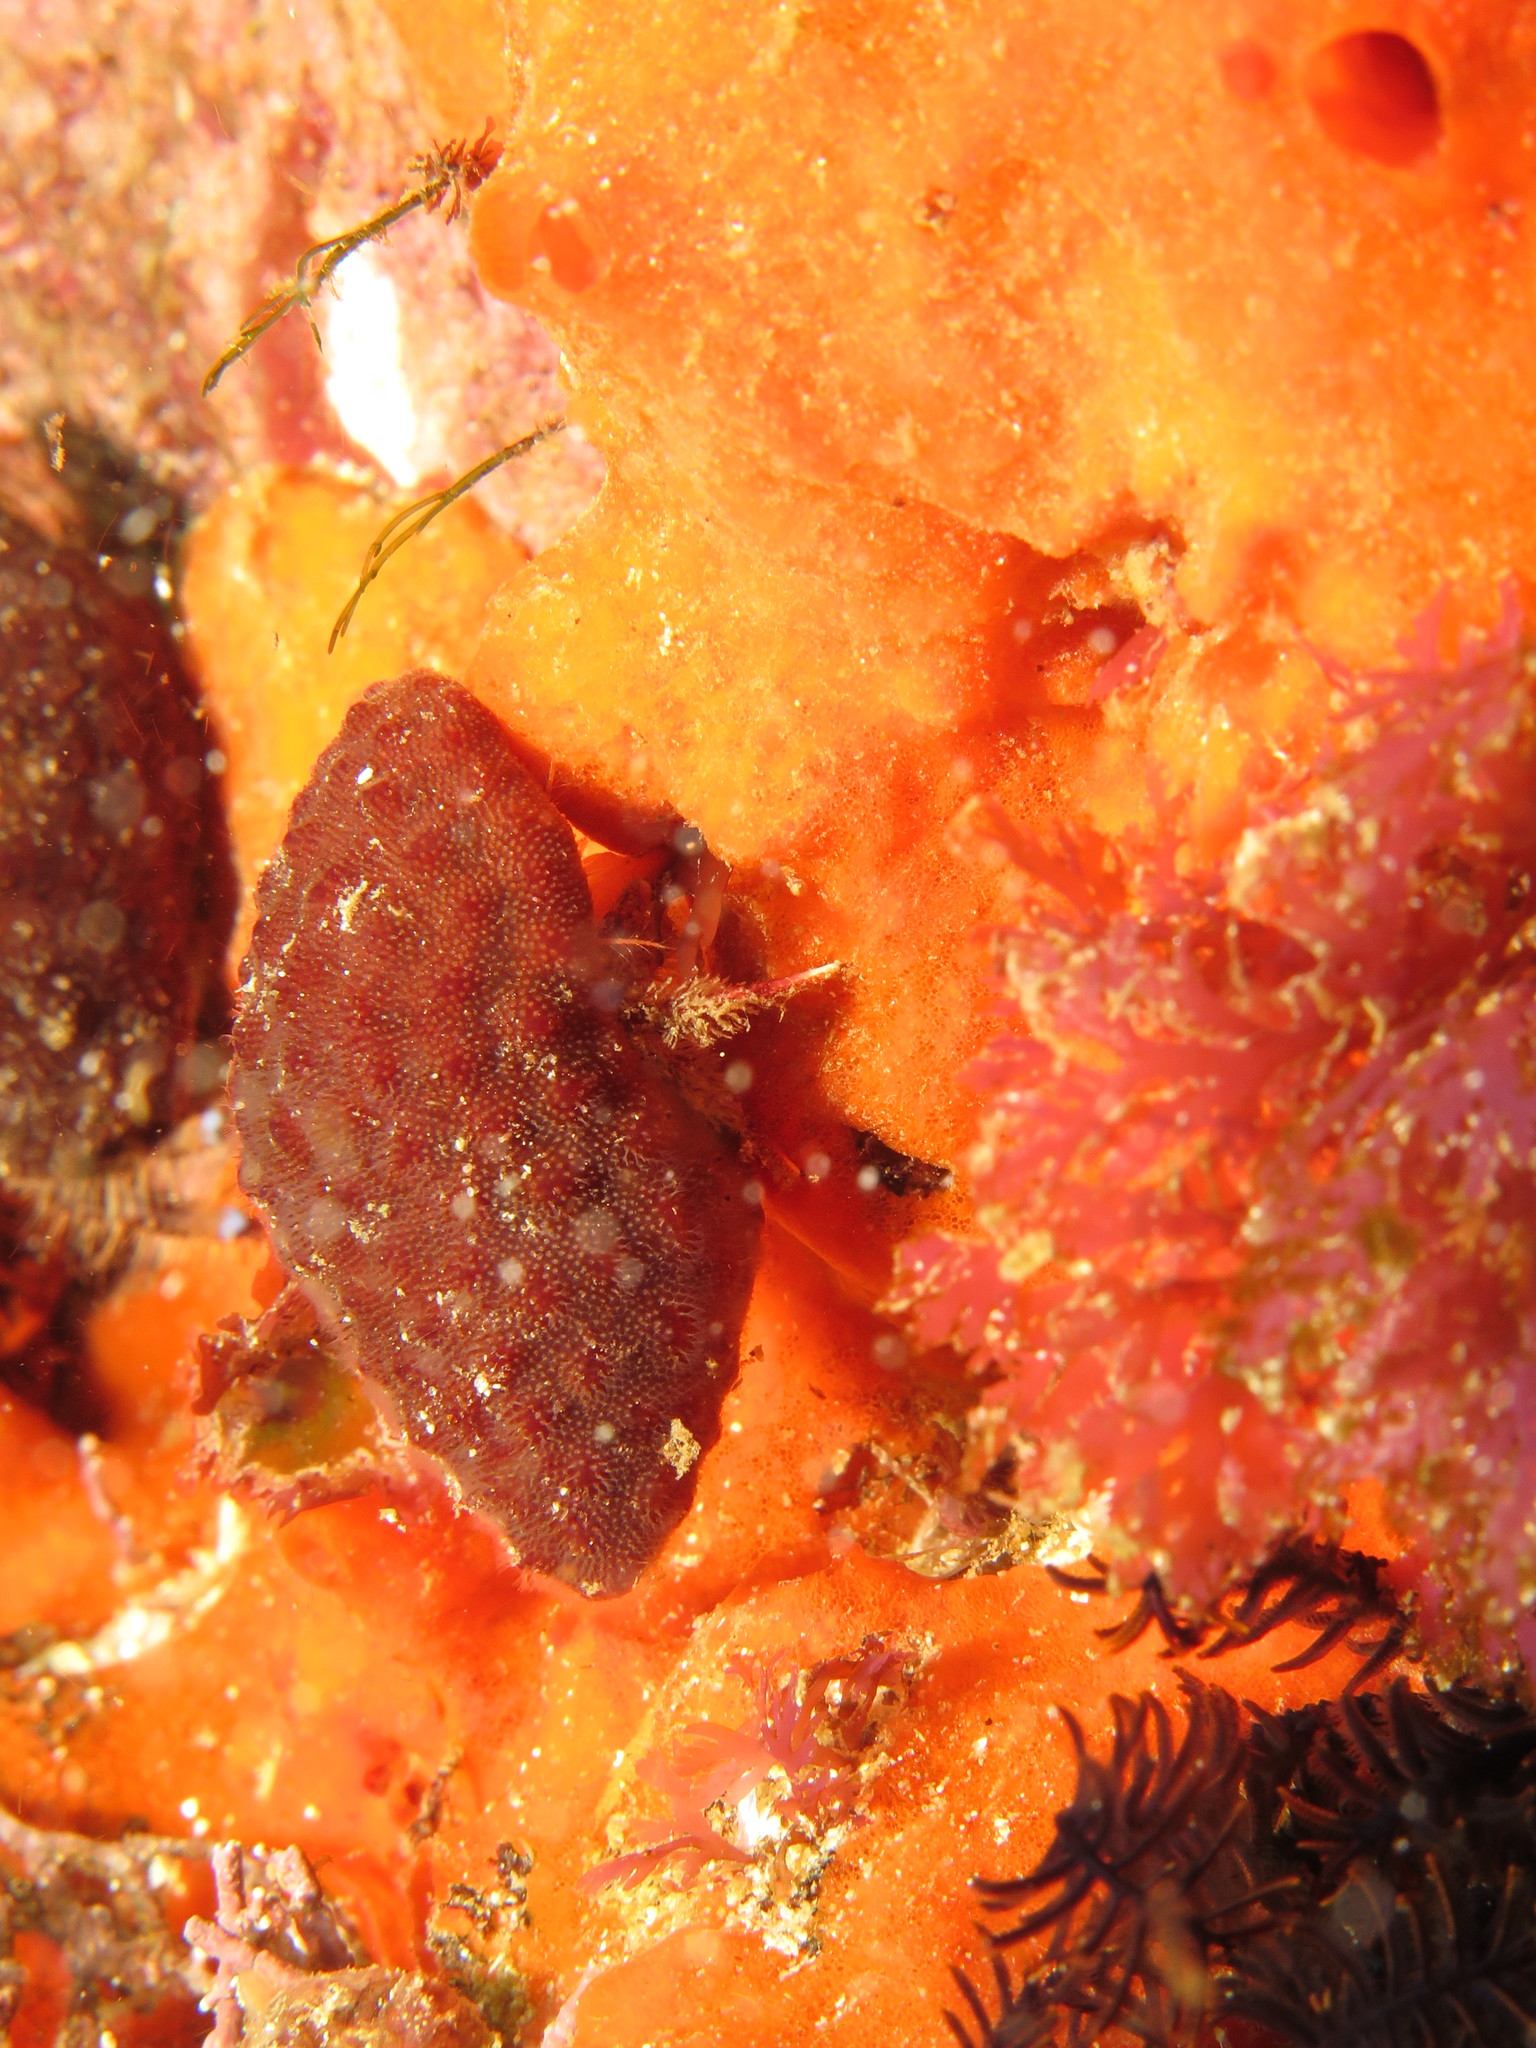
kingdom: Animalia
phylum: Arthropoda
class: Malacostraca
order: Decapoda
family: Diogenidae
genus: Paguristes
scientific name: Paguristes gamianus
